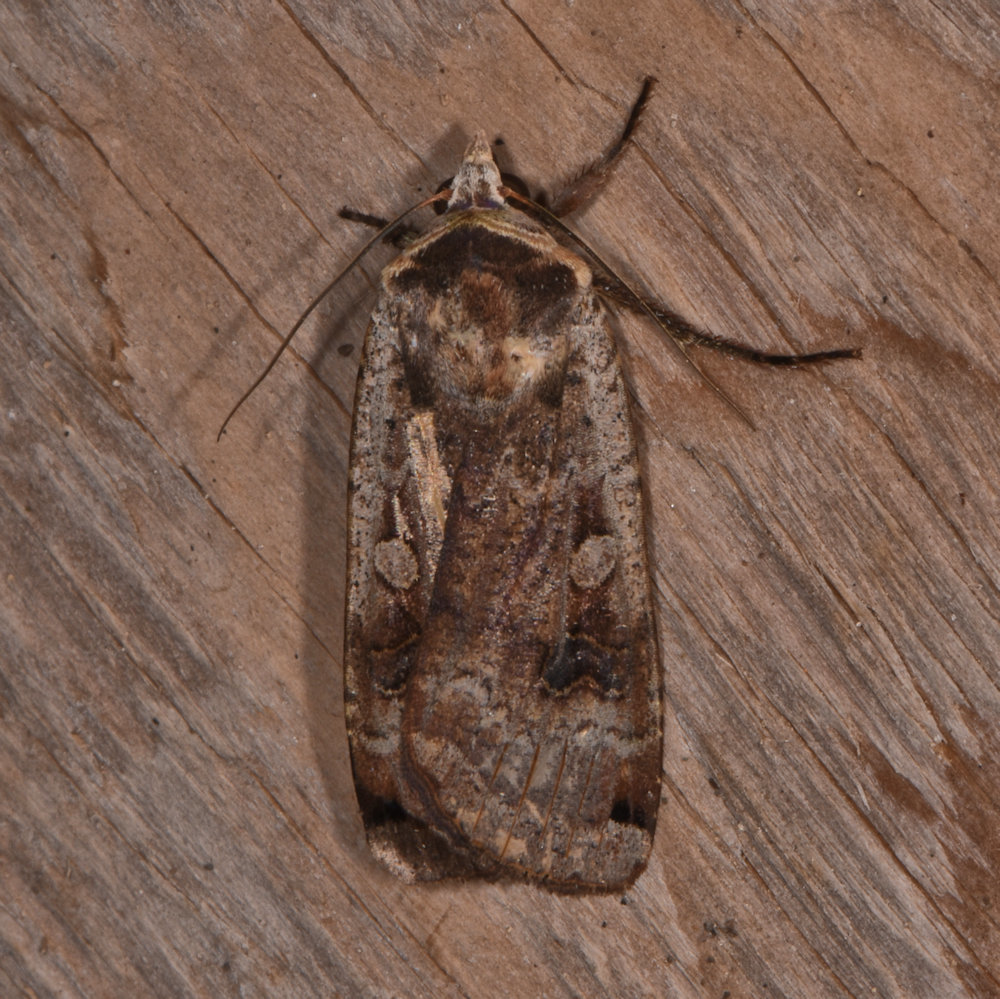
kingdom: Animalia
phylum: Arthropoda
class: Insecta
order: Lepidoptera
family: Noctuidae
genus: Noctua
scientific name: Noctua pronuba
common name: Large yellow underwing
